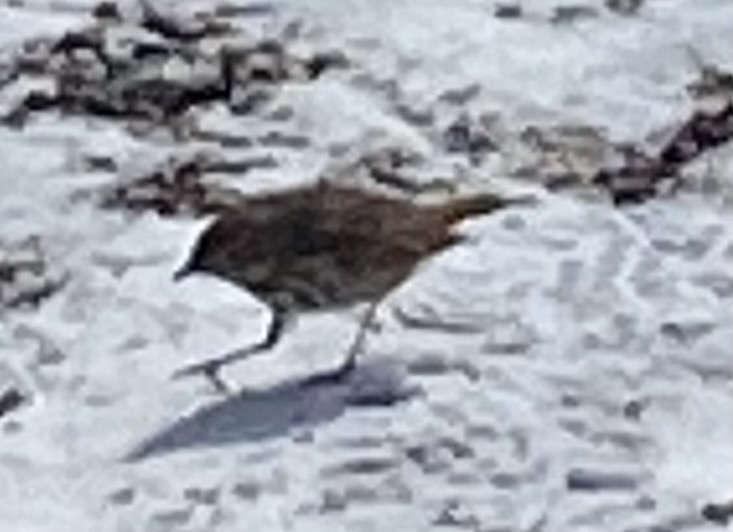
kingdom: Animalia
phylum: Chordata
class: Aves
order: Passeriformes
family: Turdidae
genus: Catharus
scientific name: Catharus guttatus
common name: Hermit thrush
